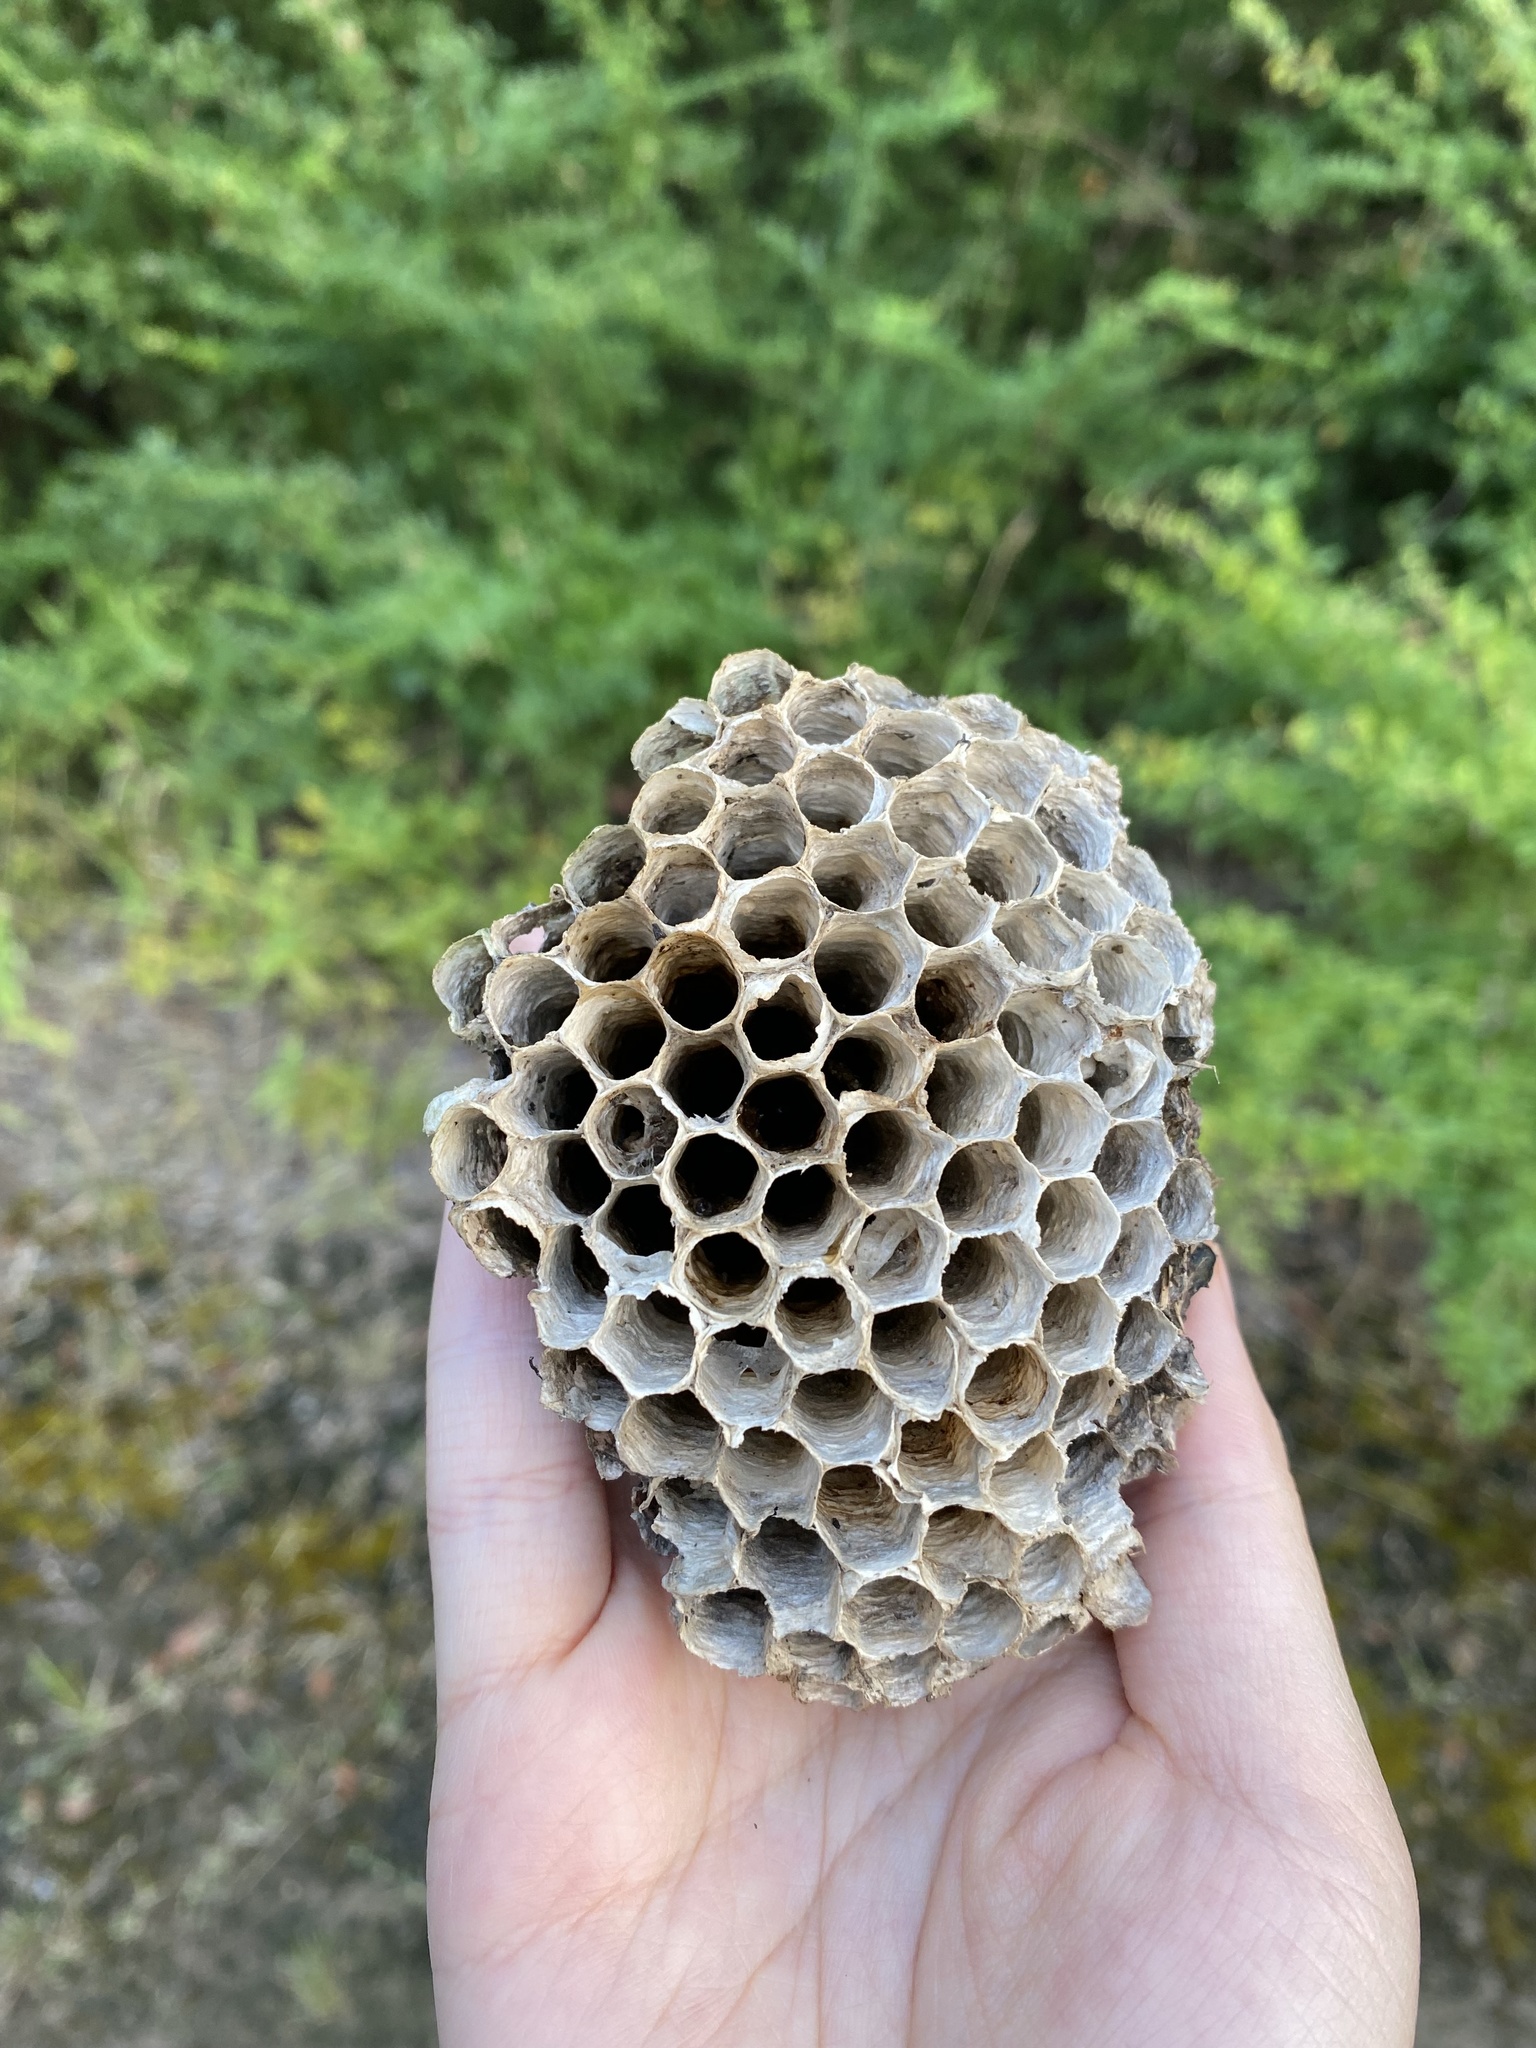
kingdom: Animalia
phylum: Arthropoda
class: Insecta
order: Hymenoptera
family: Eumenidae
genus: Polistes
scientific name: Polistes
